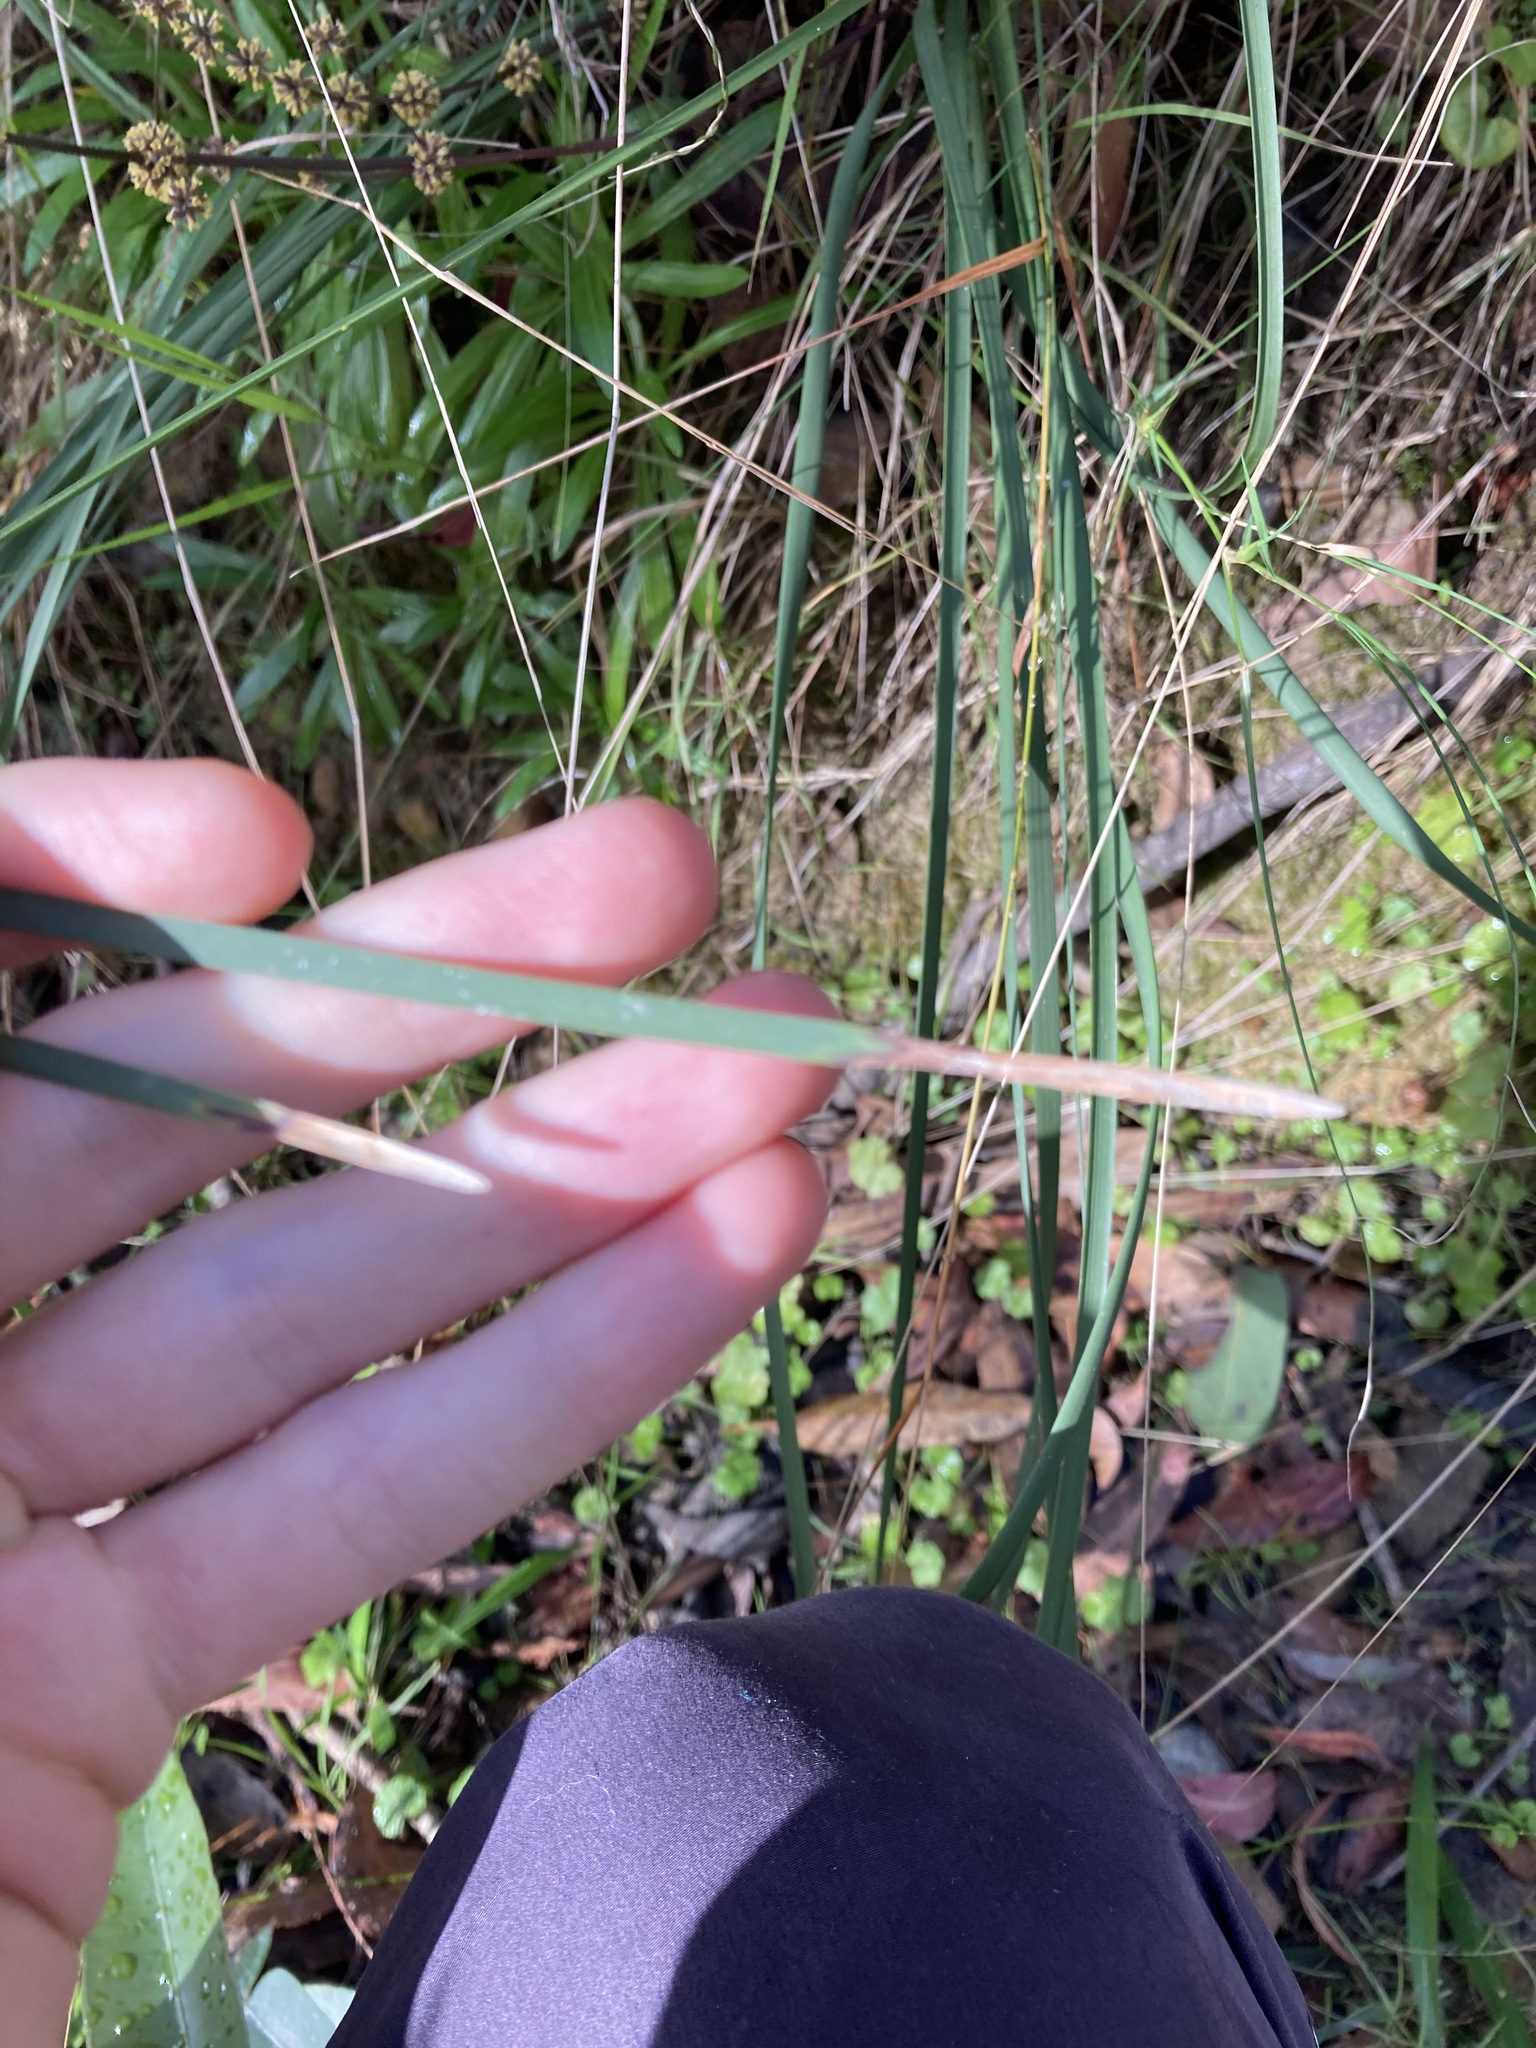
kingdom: Plantae
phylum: Tracheophyta
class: Liliopsida
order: Asparagales
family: Asparagaceae
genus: Lomandra
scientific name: Lomandra multiflora
